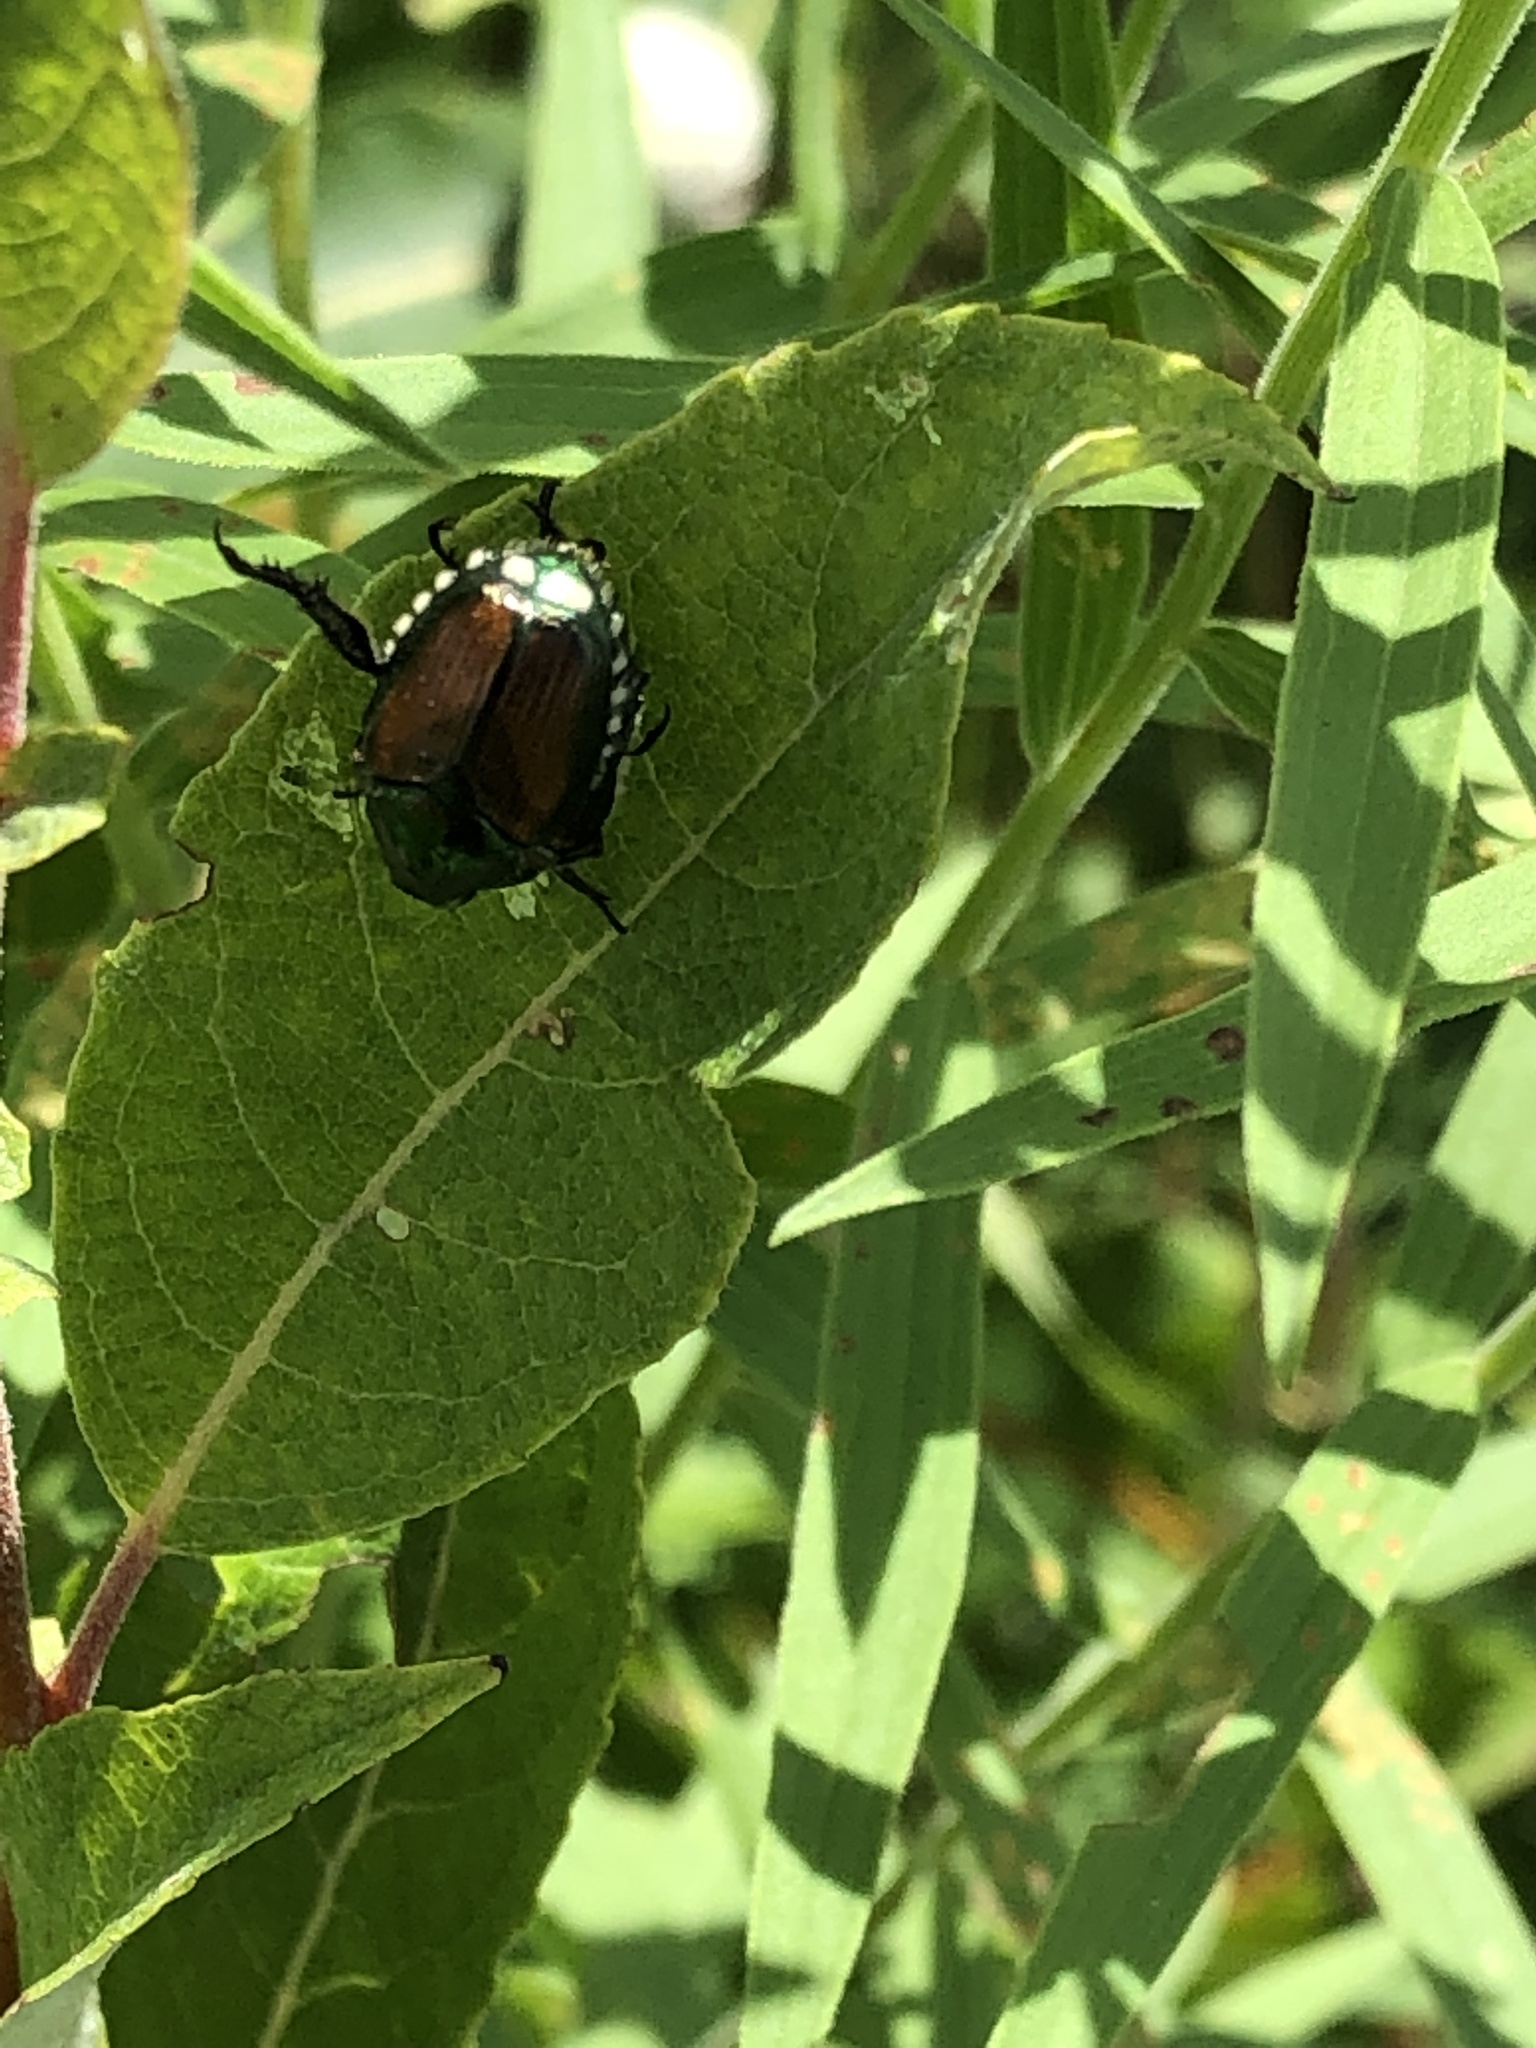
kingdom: Animalia
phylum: Arthropoda
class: Insecta
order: Coleoptera
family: Scarabaeidae
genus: Popillia
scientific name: Popillia japonica
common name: Japanese beetle
